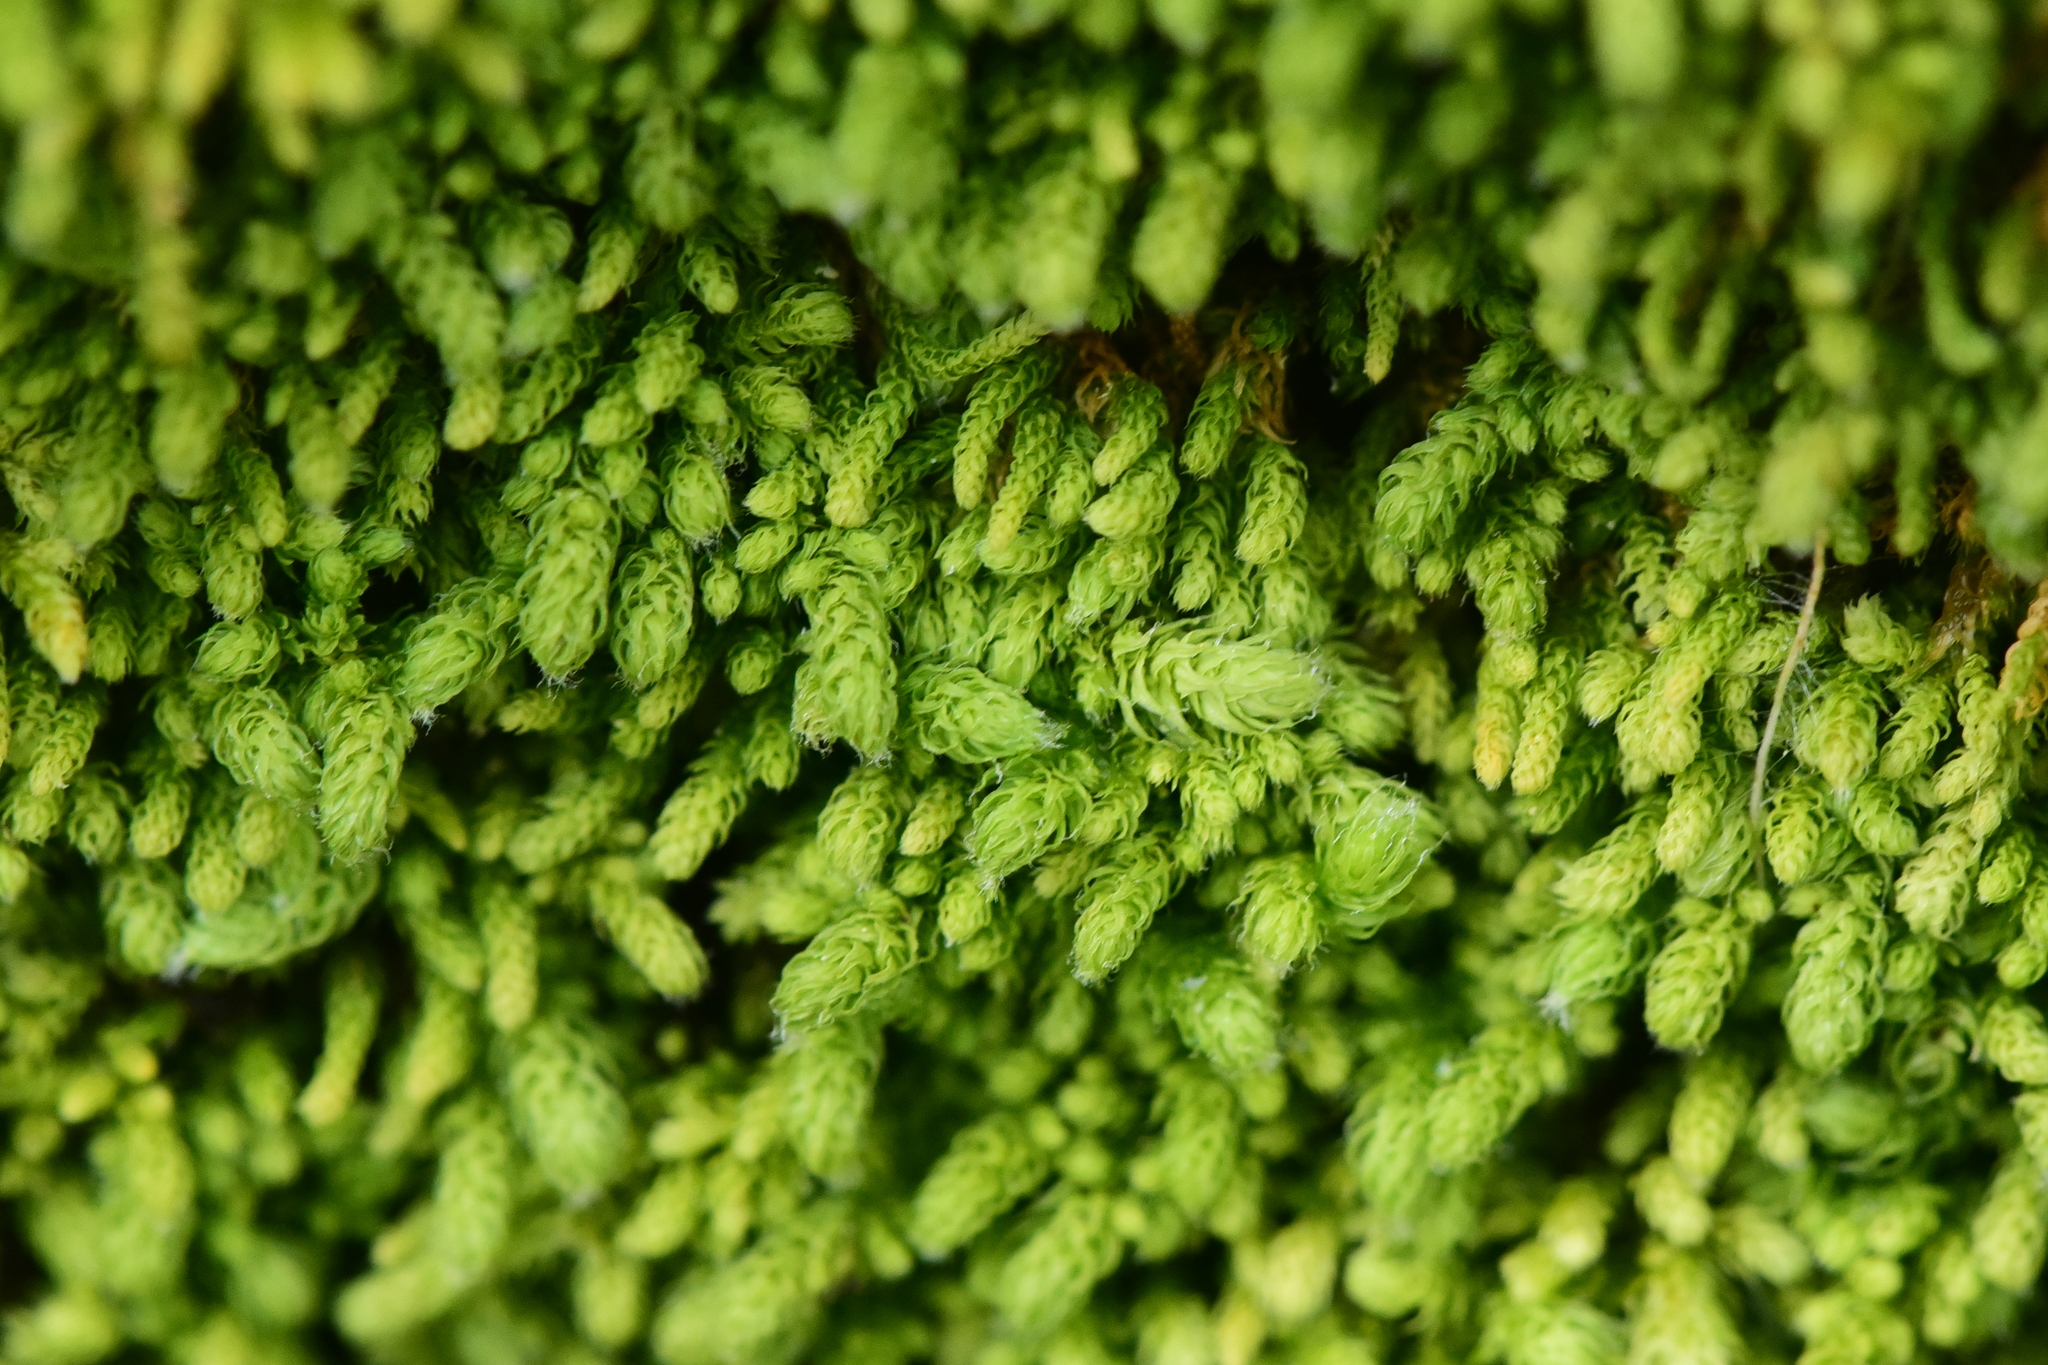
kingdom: Plantae
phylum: Bryophyta
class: Bryopsida
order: Hypnales
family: Brachytheciaceae
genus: Claopodium
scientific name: Claopodium bolanderi
